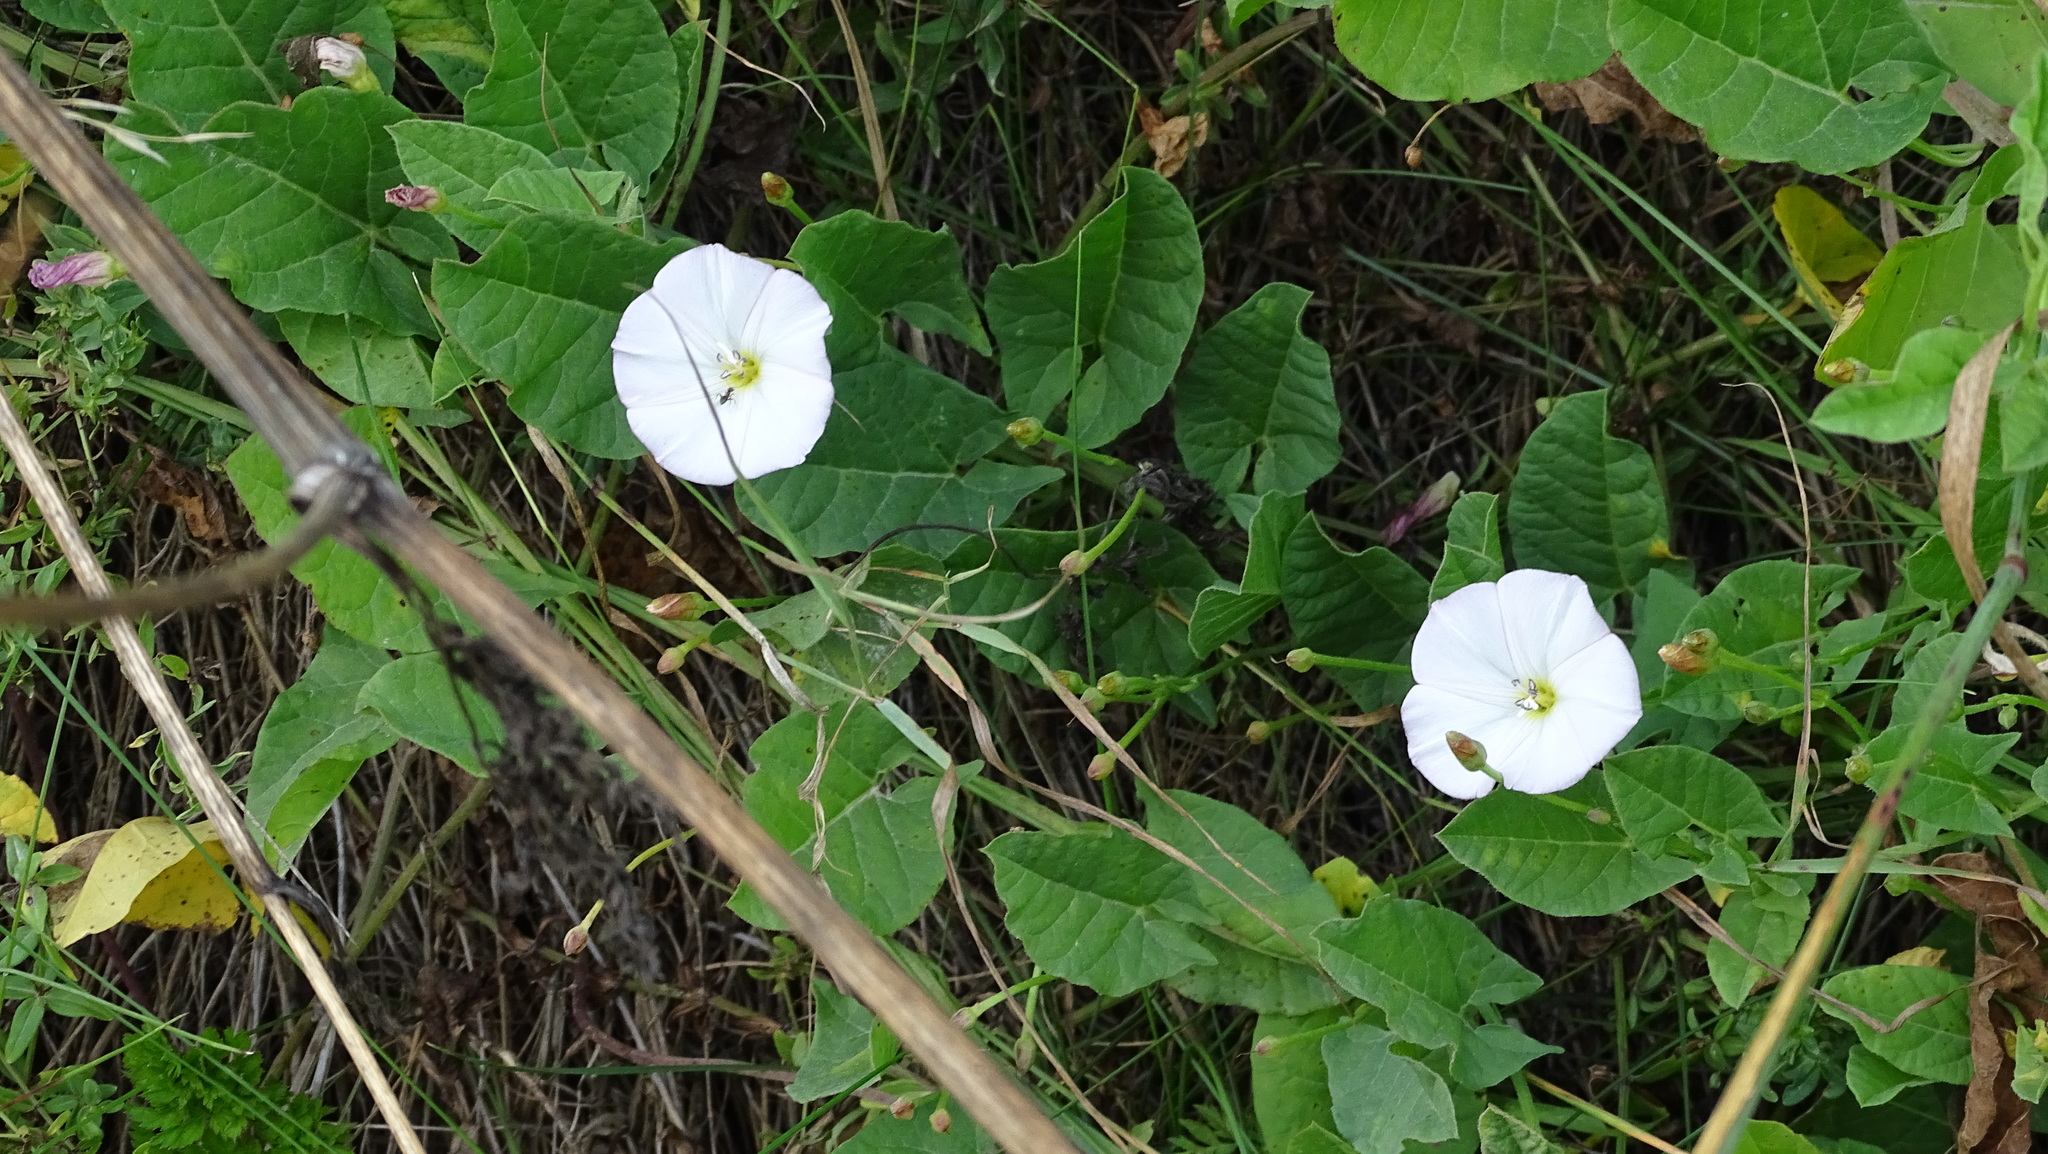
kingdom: Plantae
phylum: Tracheophyta
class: Magnoliopsida
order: Solanales
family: Convolvulaceae
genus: Convolvulus
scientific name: Convolvulus arvensis
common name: Field bindweed
